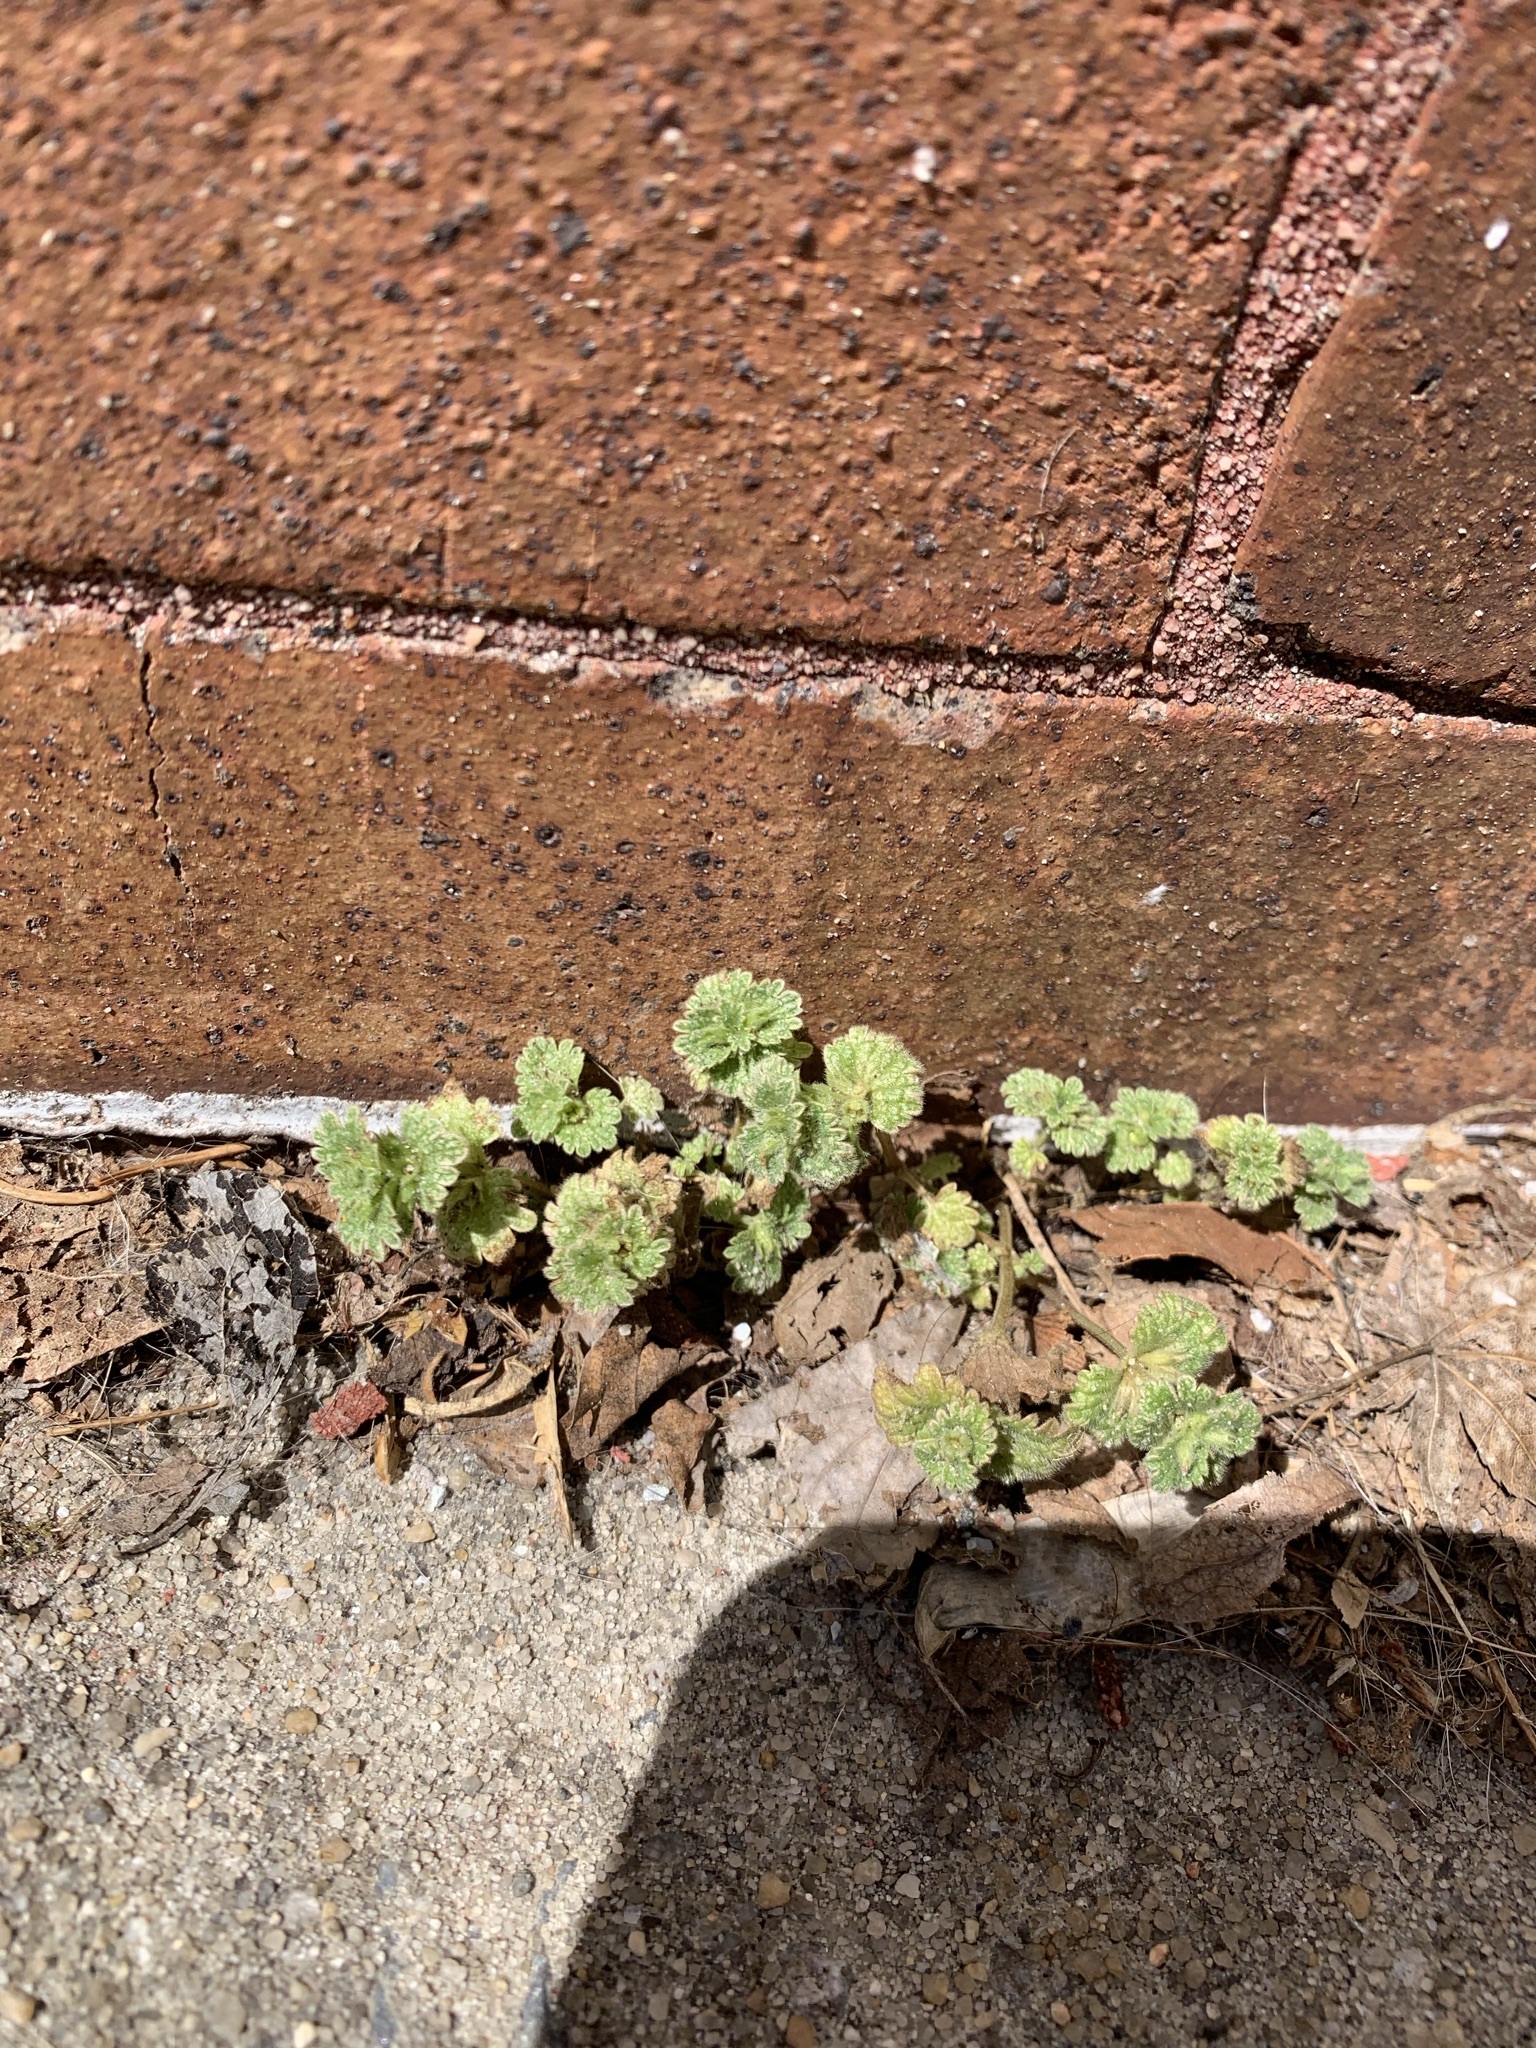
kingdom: Plantae
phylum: Tracheophyta
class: Magnoliopsida
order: Lamiales
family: Lamiaceae
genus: Lamium
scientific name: Lamium amplexicaule
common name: Henbit dead-nettle
